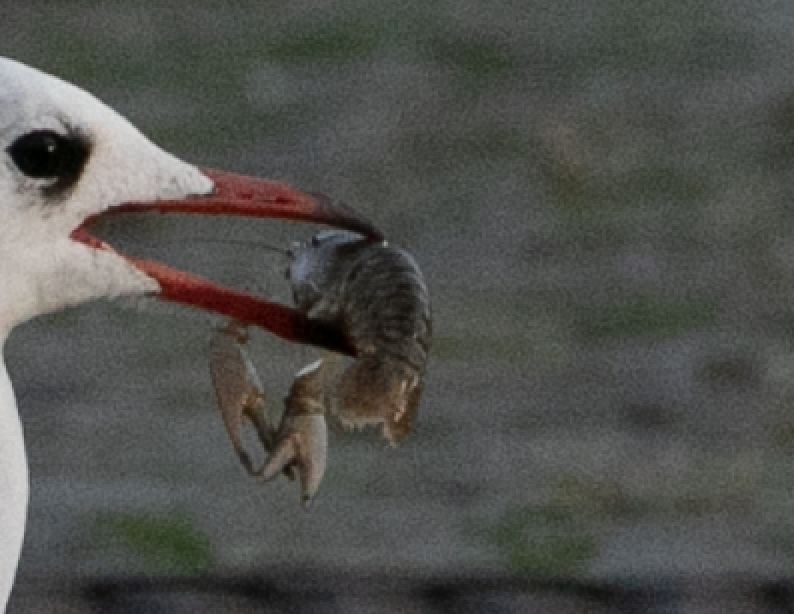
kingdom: Animalia
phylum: Arthropoda
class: Malacostraca
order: Decapoda
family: Cambaridae
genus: Faxonius
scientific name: Faxonius limosus
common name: American crayfish
